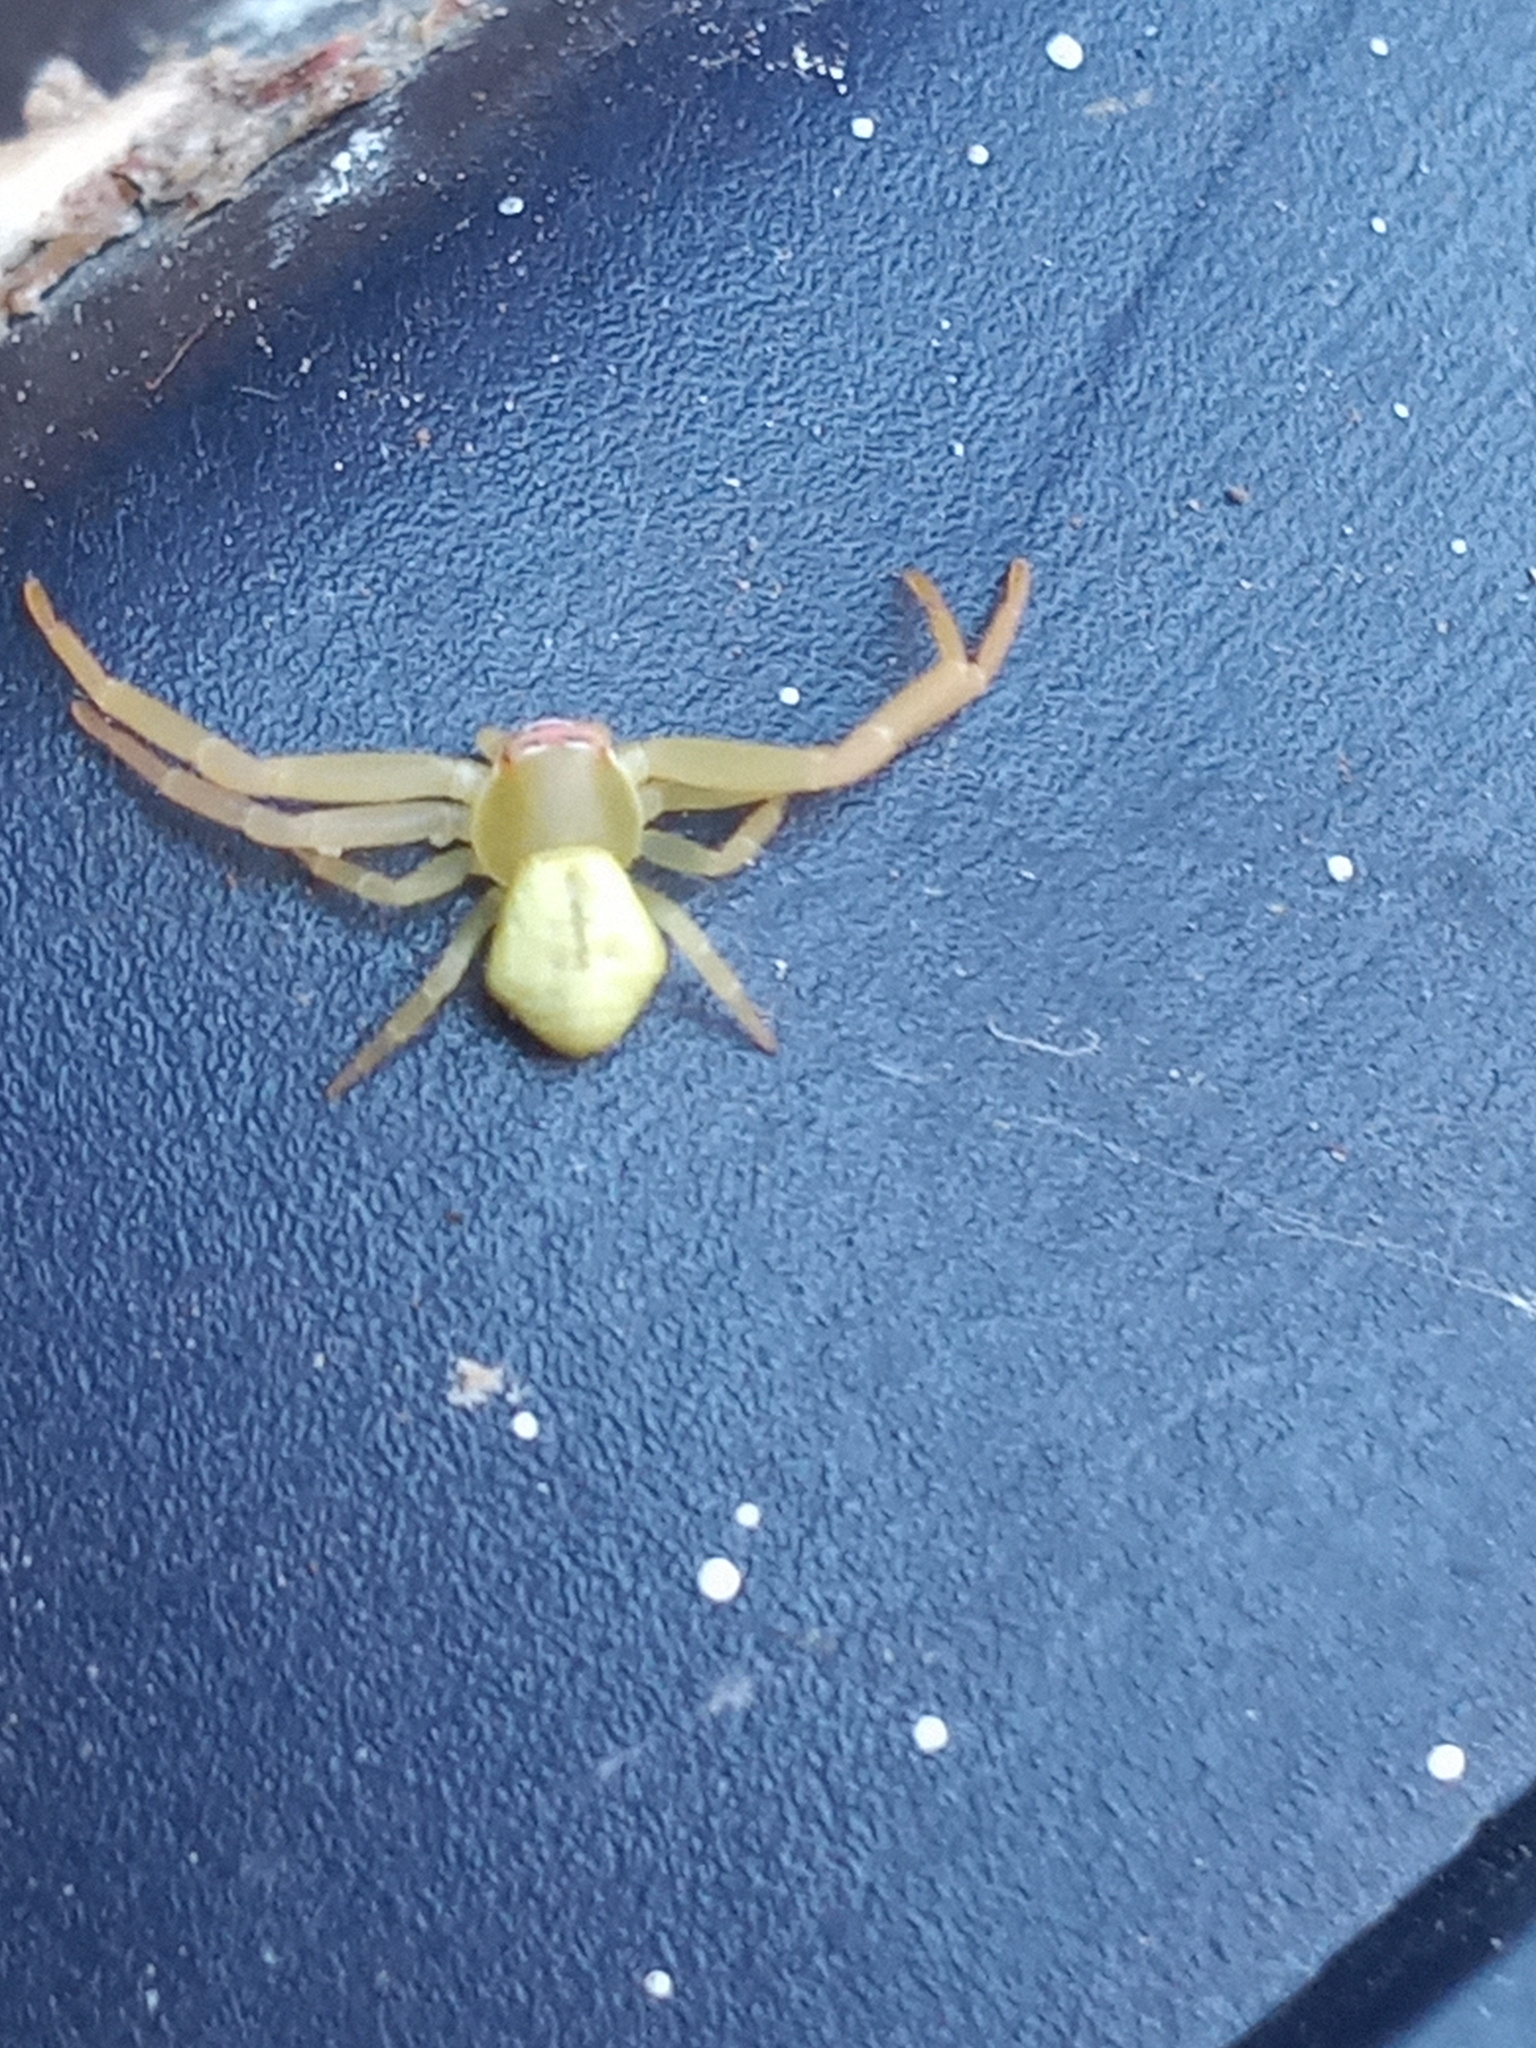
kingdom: Animalia
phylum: Arthropoda
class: Arachnida
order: Araneae
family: Thomisidae
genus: Misumessus
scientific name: Misumessus quinteroi
